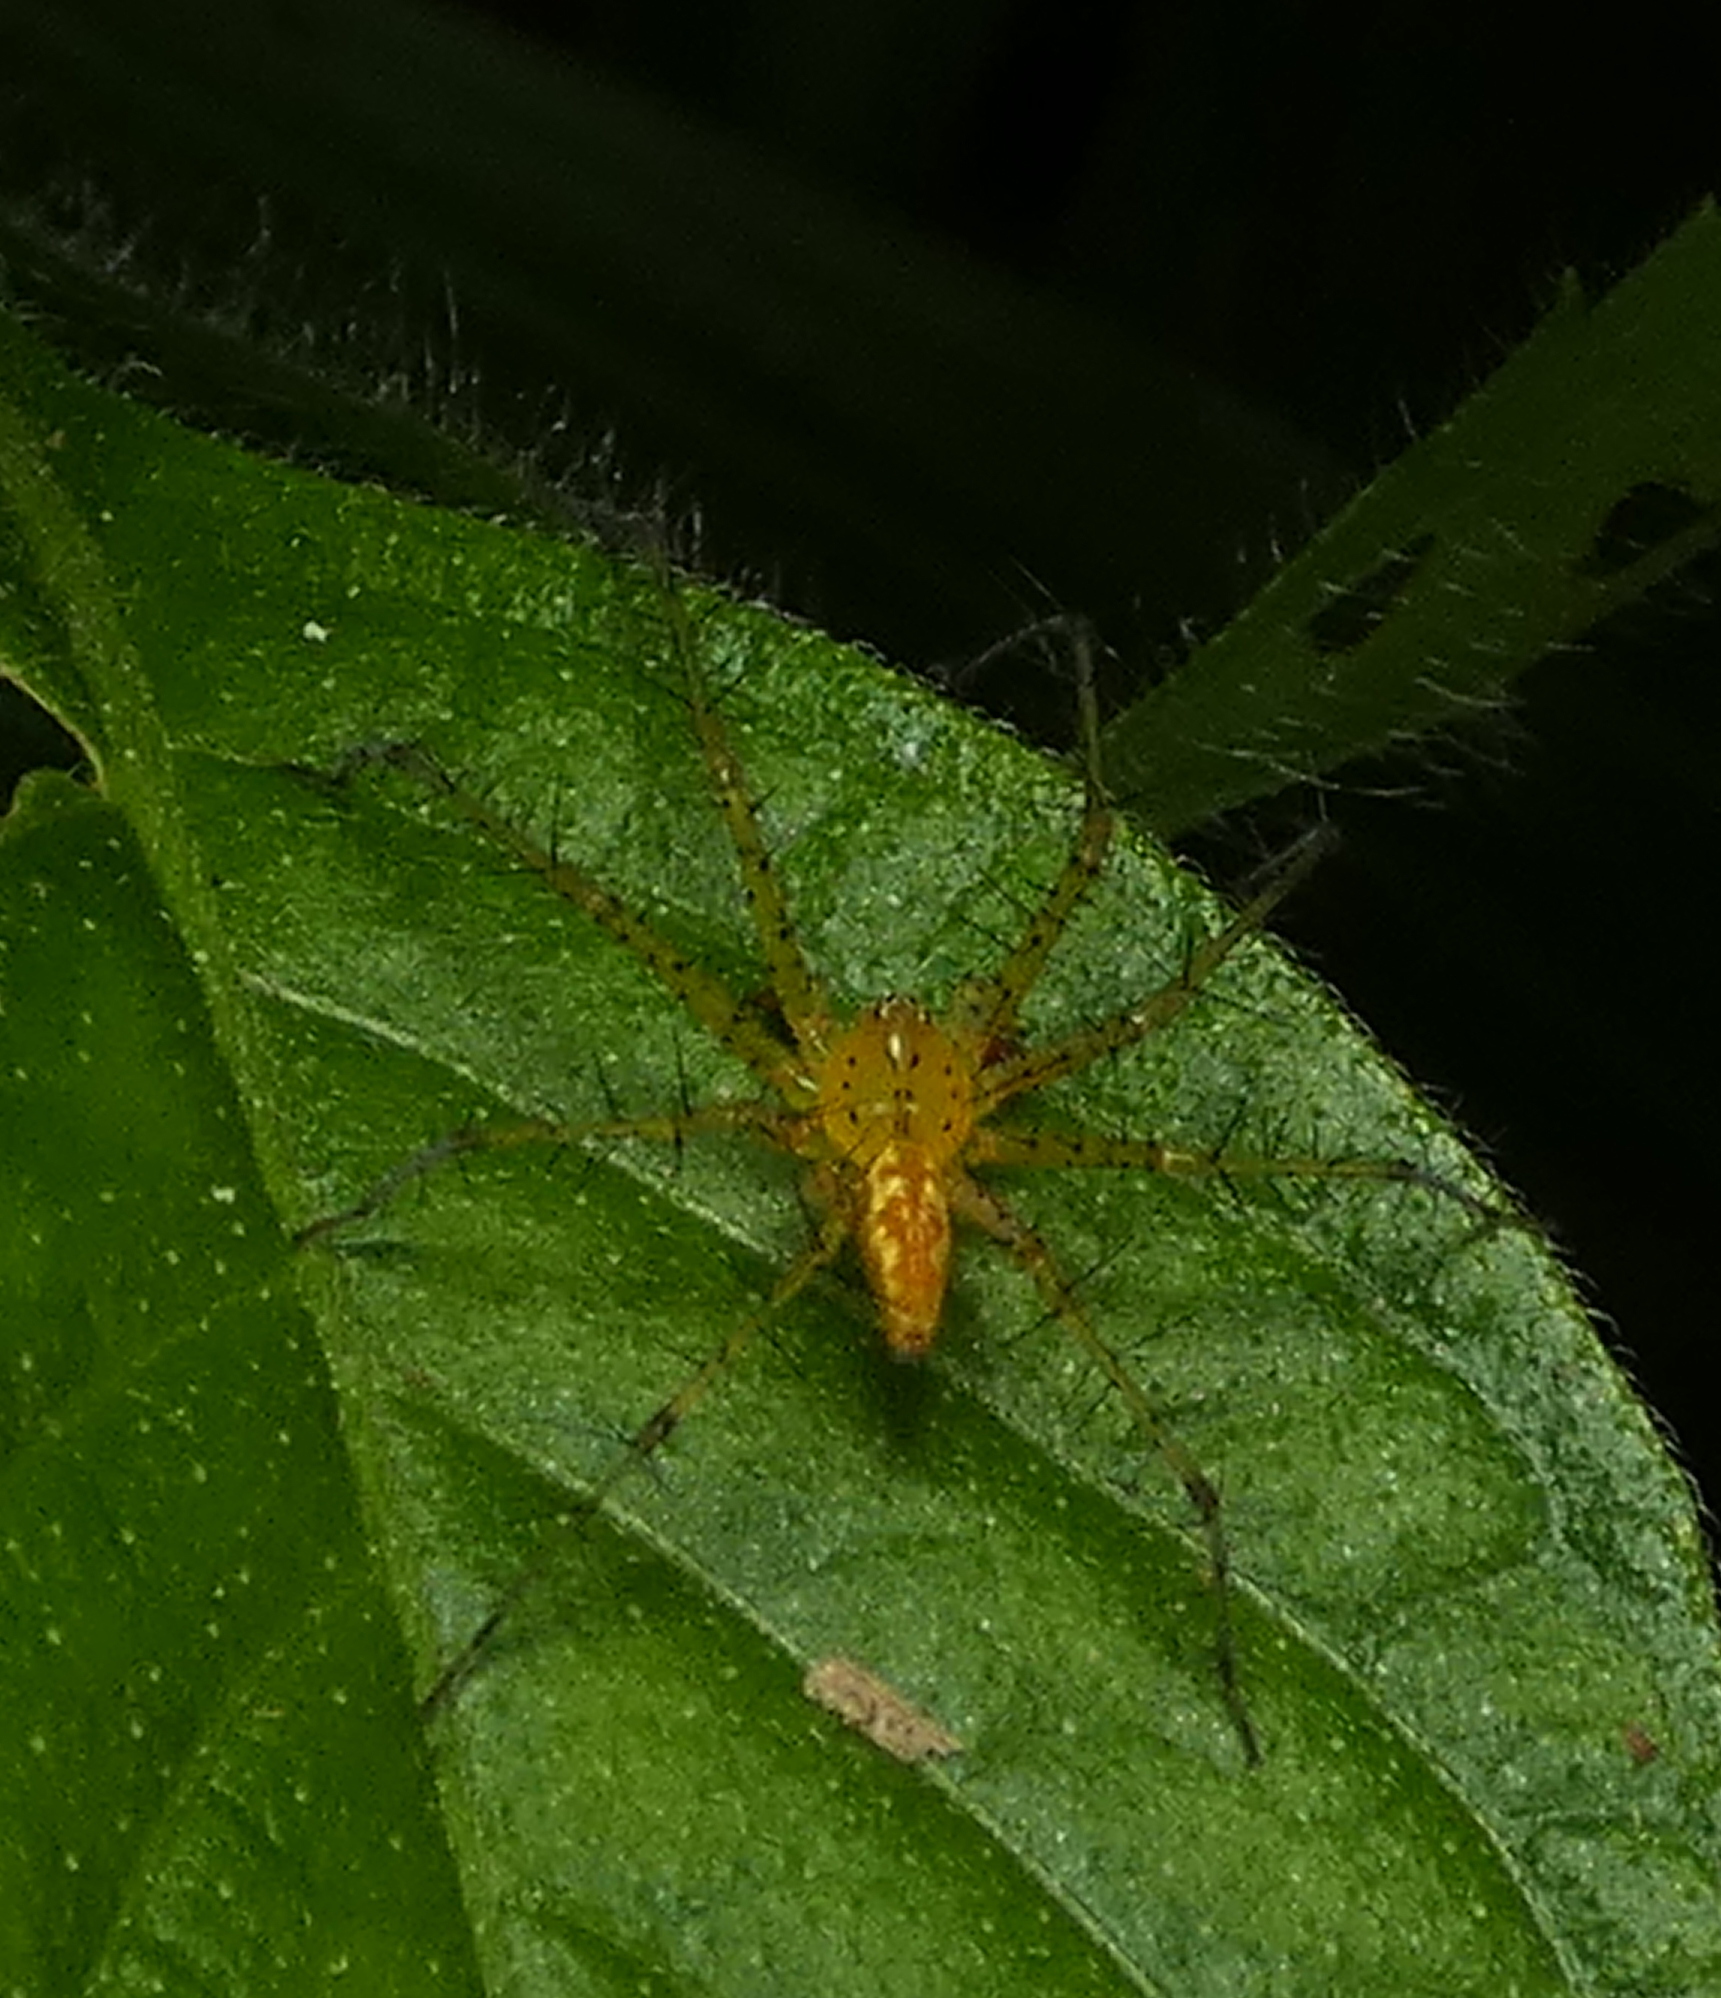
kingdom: Animalia
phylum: Arthropoda
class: Arachnida
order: Araneae
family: Pisauridae
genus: Architis
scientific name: Architis spinipes
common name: Nursery web spiders
